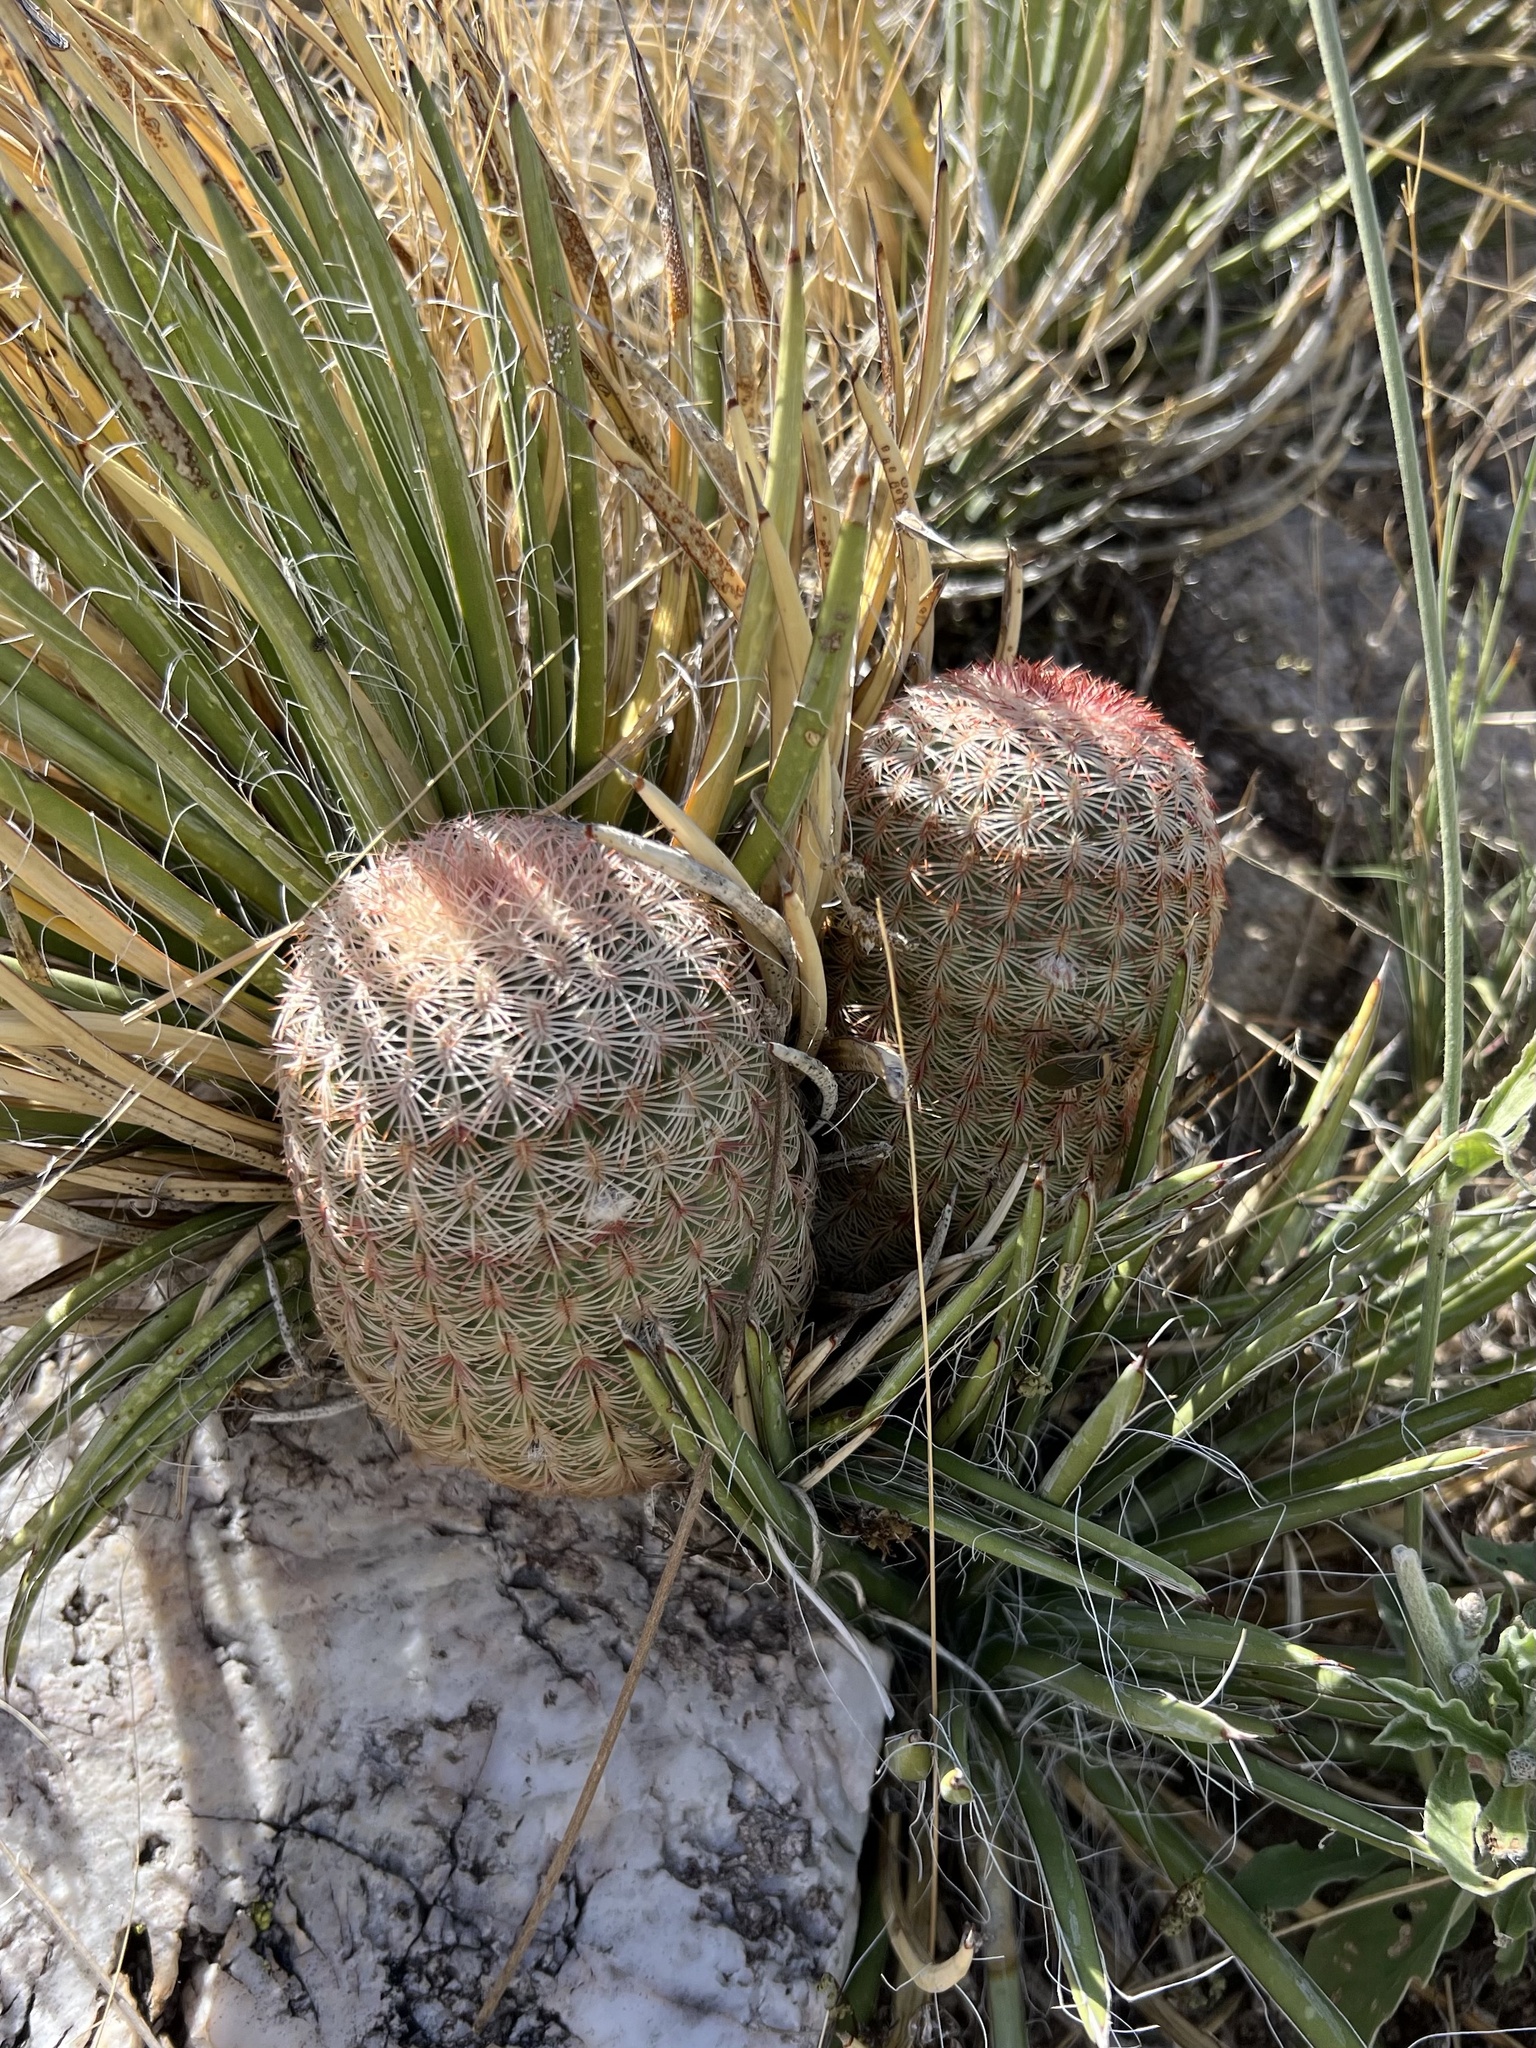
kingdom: Plantae
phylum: Tracheophyta
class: Magnoliopsida
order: Caryophyllales
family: Cactaceae
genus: Echinocereus
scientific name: Echinocereus rigidissimus
